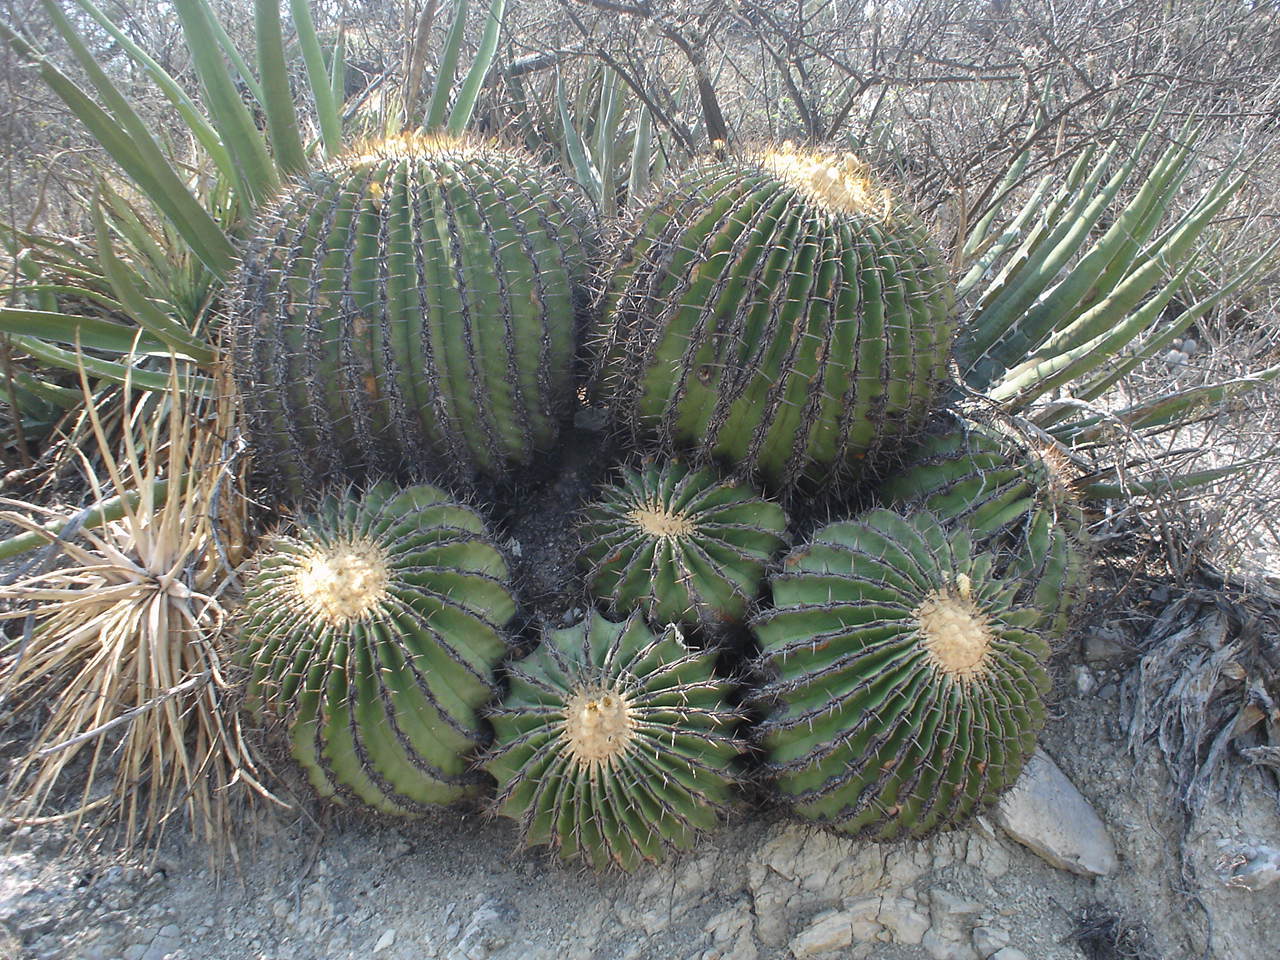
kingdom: Plantae
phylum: Tracheophyta
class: Magnoliopsida
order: Caryophyllales
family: Cactaceae
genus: Echinocactus
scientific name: Echinocactus platyacanthus
